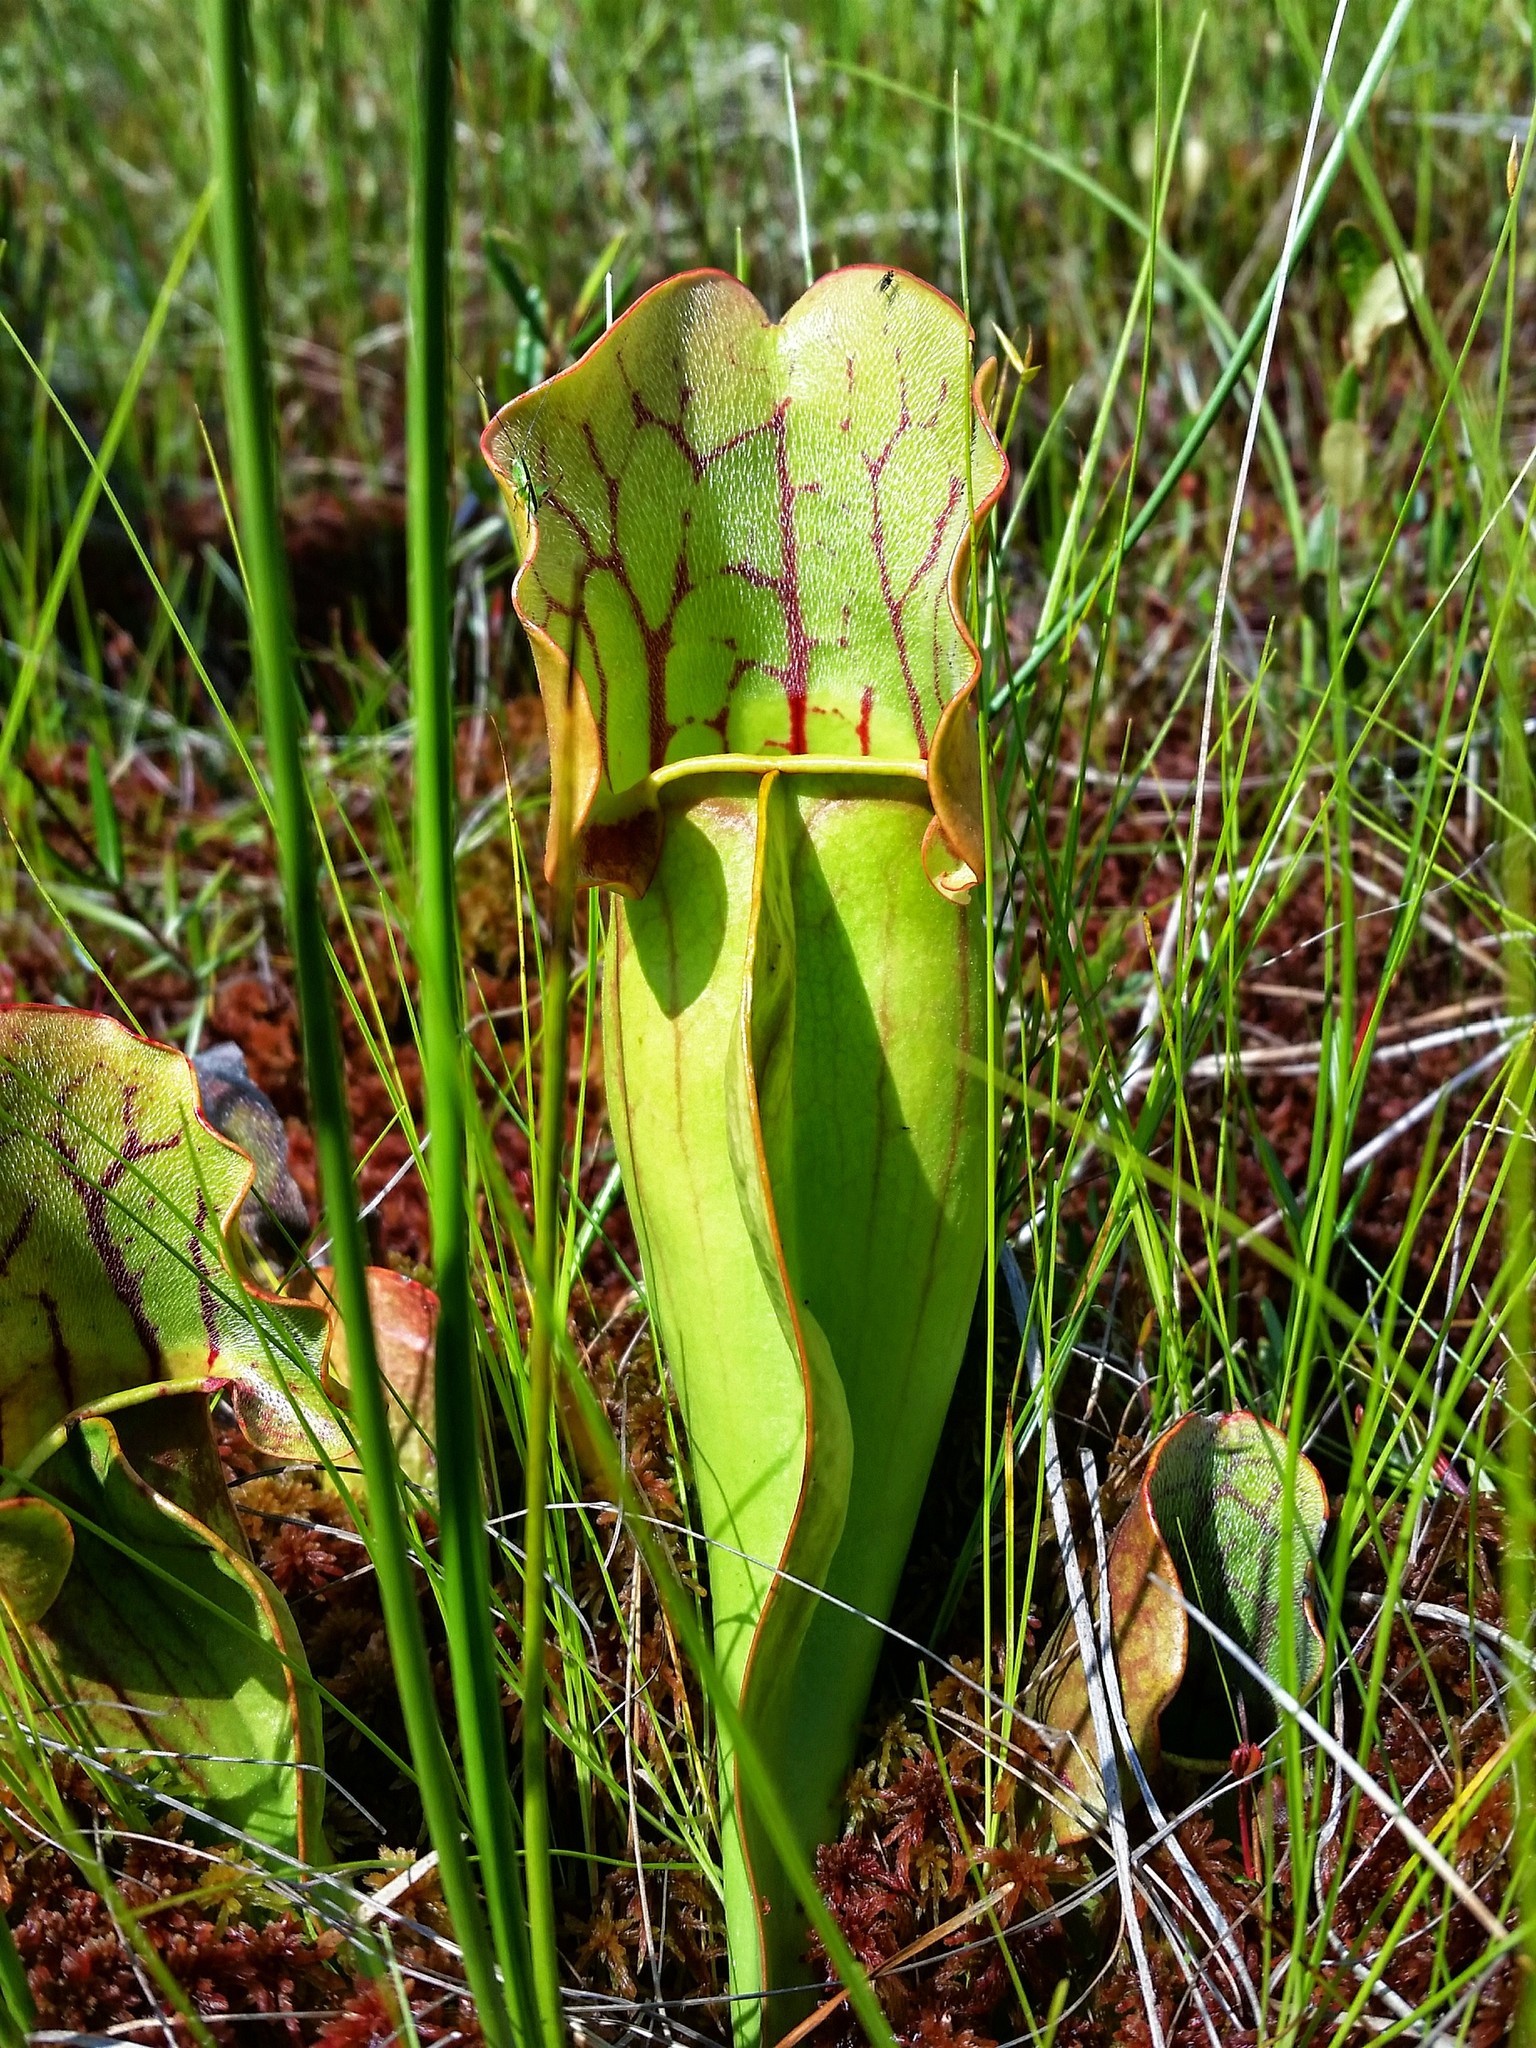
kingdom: Plantae
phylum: Tracheophyta
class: Magnoliopsida
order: Ericales
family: Sarraceniaceae
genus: Sarracenia
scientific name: Sarracenia purpurea
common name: Pitcherplant
